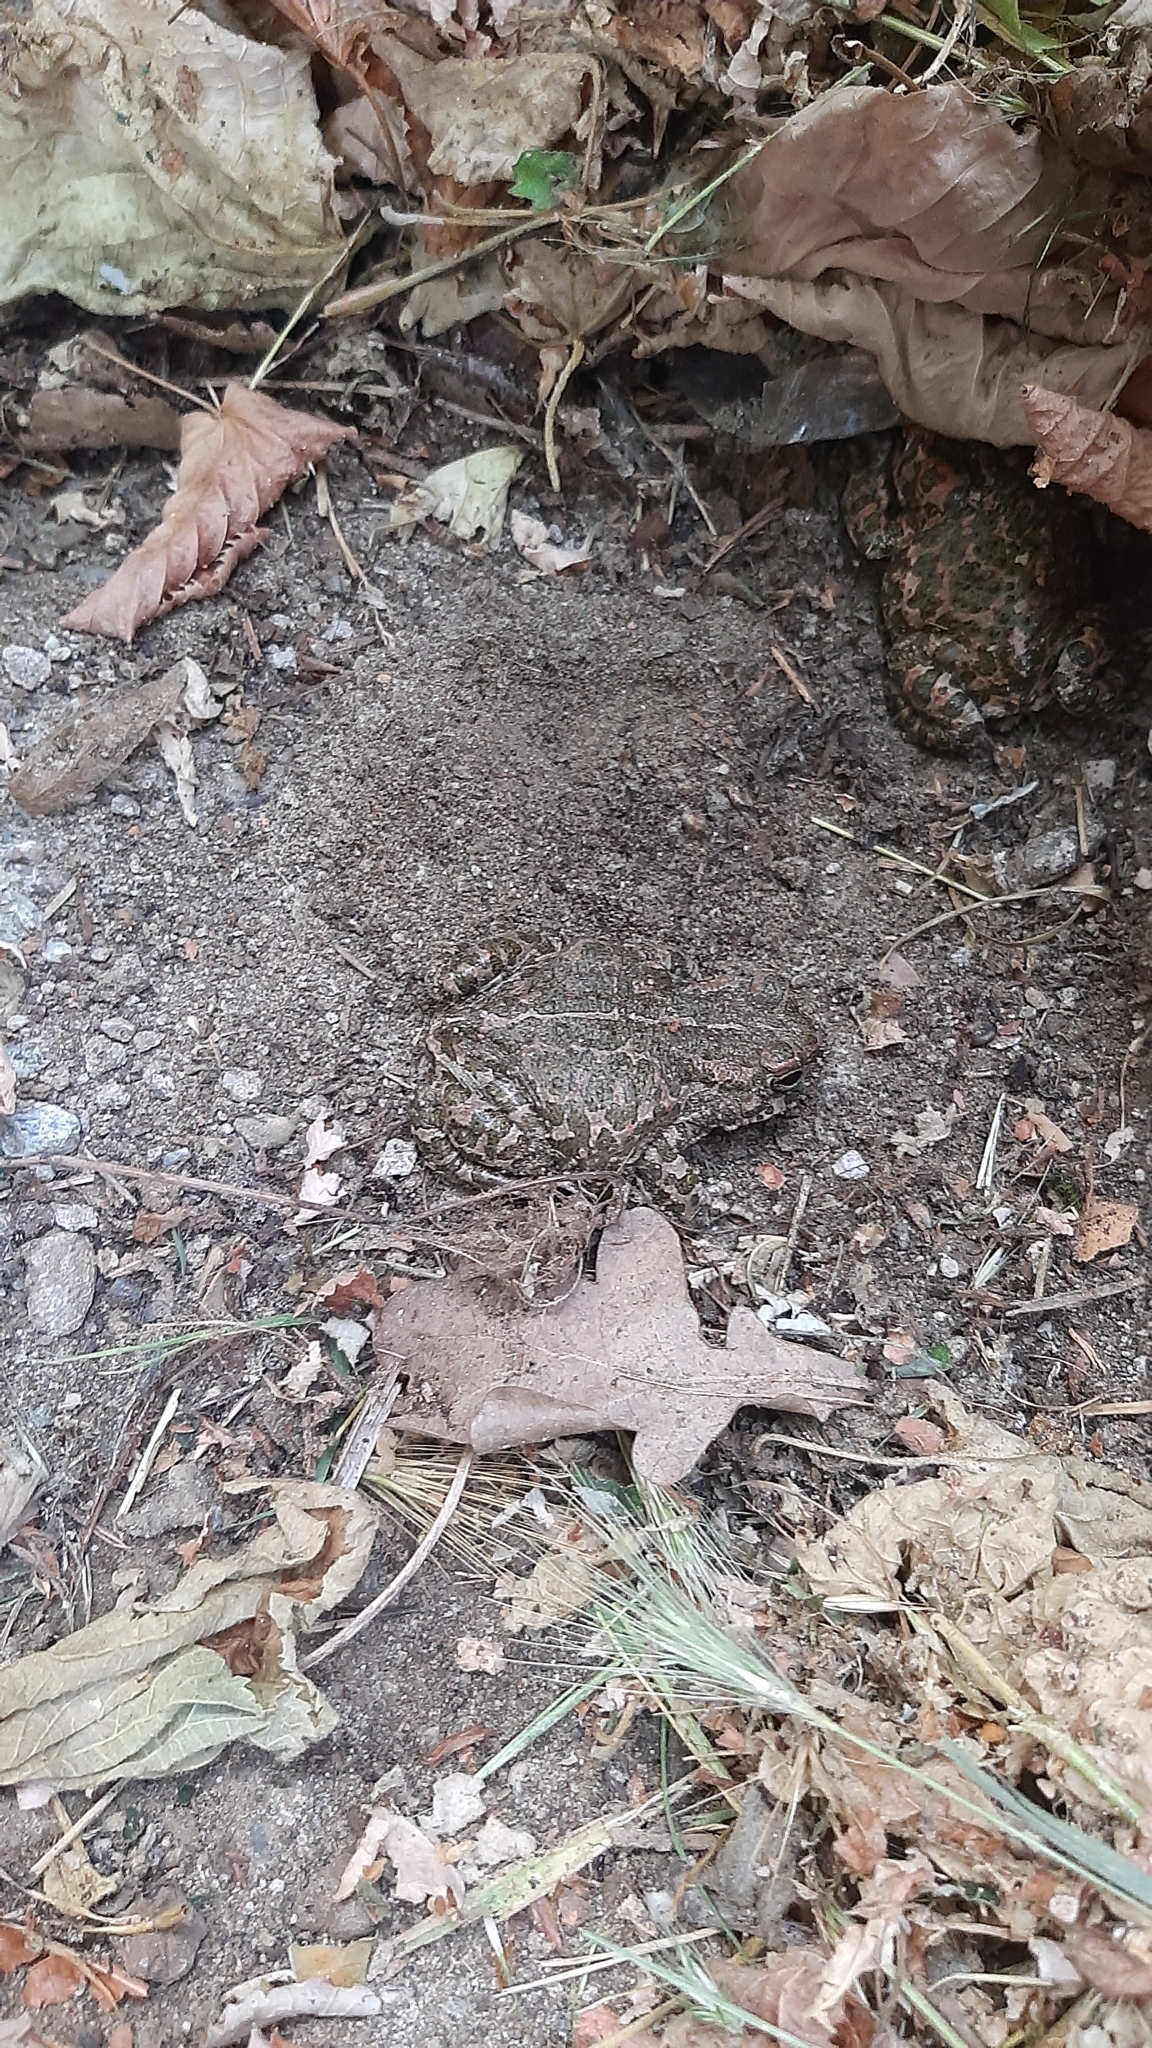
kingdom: Animalia
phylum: Chordata
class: Amphibia
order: Anura
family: Bufonidae
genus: Bufotes
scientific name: Bufotes viridis
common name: European green toad
